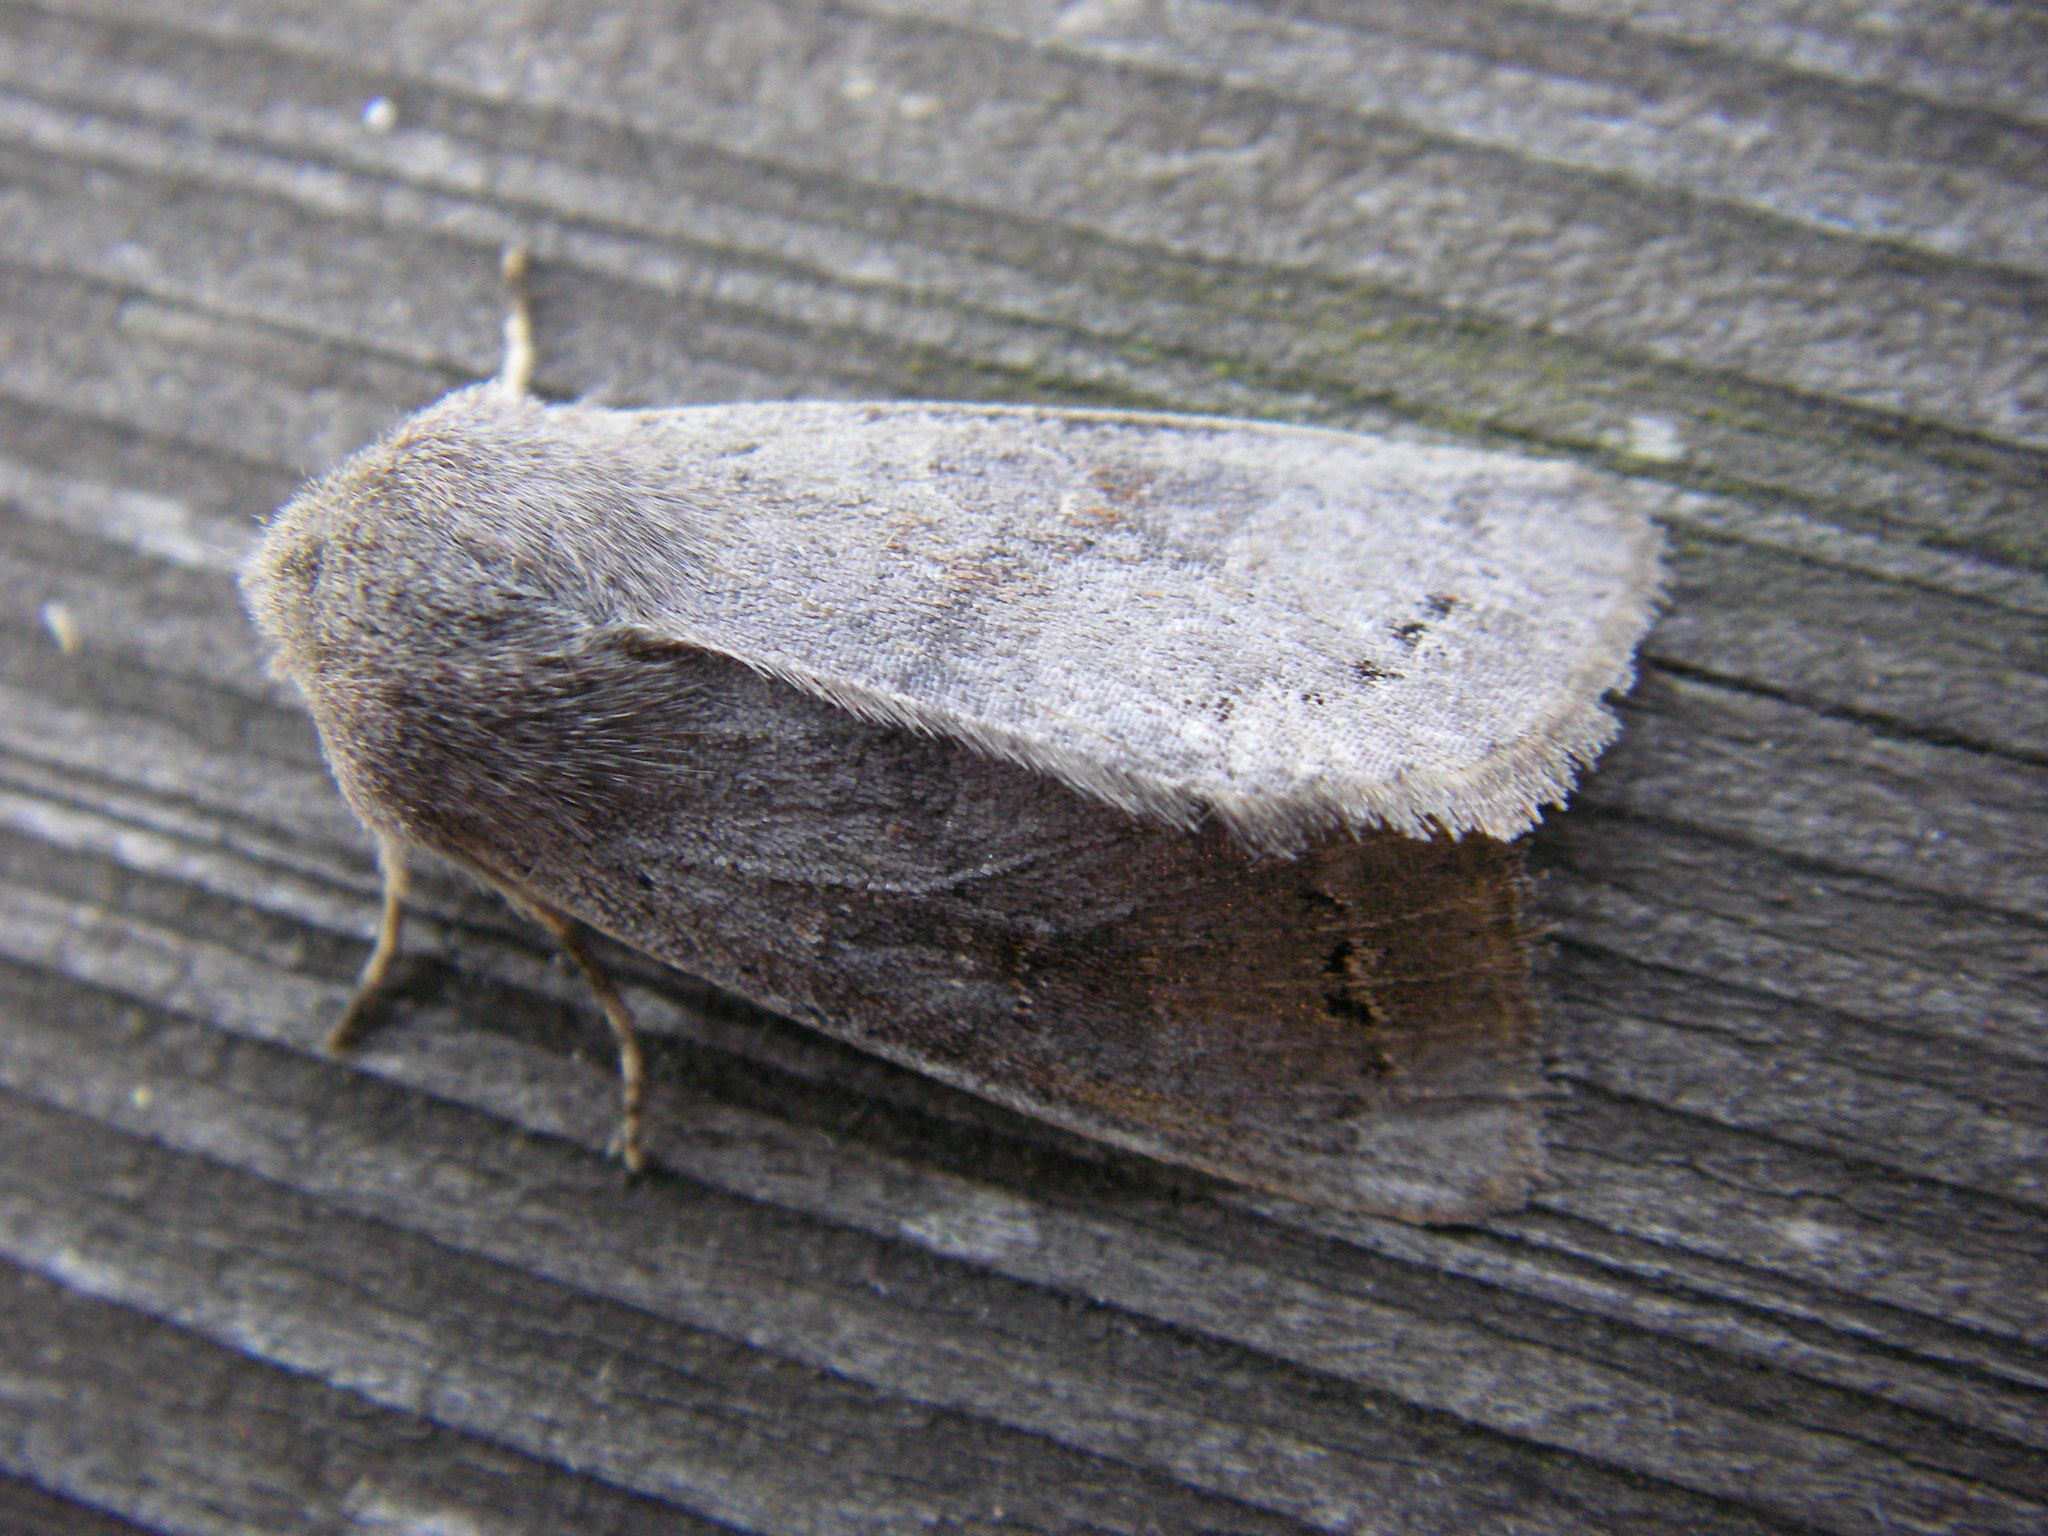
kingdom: Animalia
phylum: Arthropoda
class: Insecta
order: Lepidoptera
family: Noctuidae
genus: Orthosia
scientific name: Orthosia populeti
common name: Lead-coloured drab
